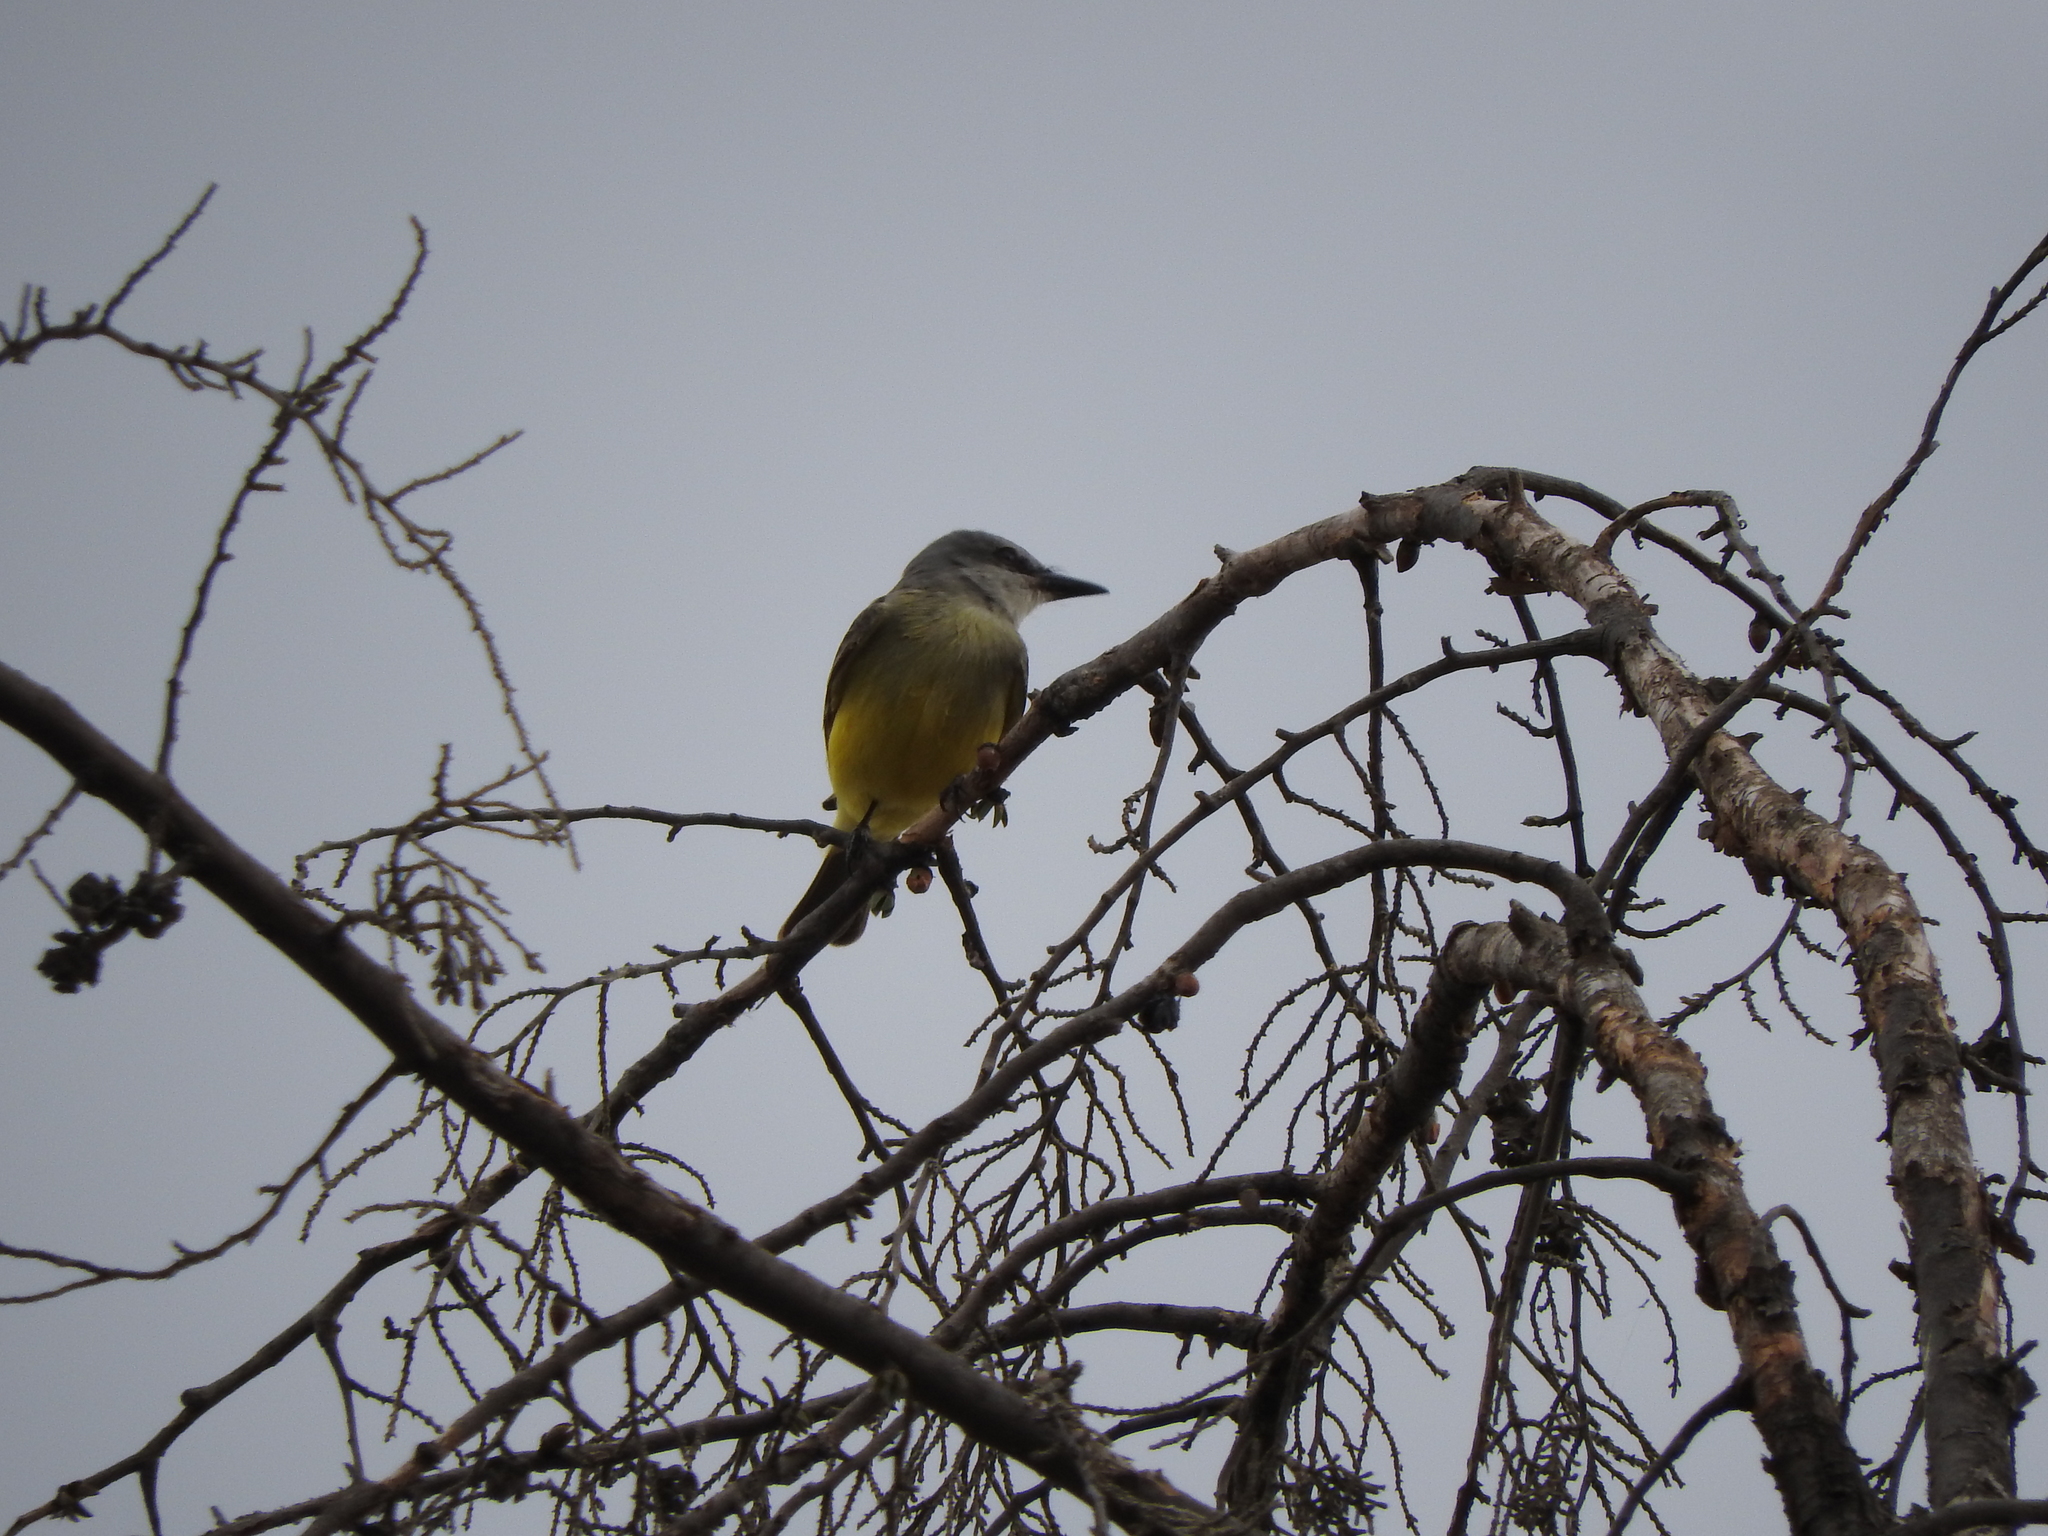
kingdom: Animalia
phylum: Chordata
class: Aves
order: Passeriformes
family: Tyrannidae
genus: Tyrannus
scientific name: Tyrannus melancholicus
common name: Tropical kingbird
